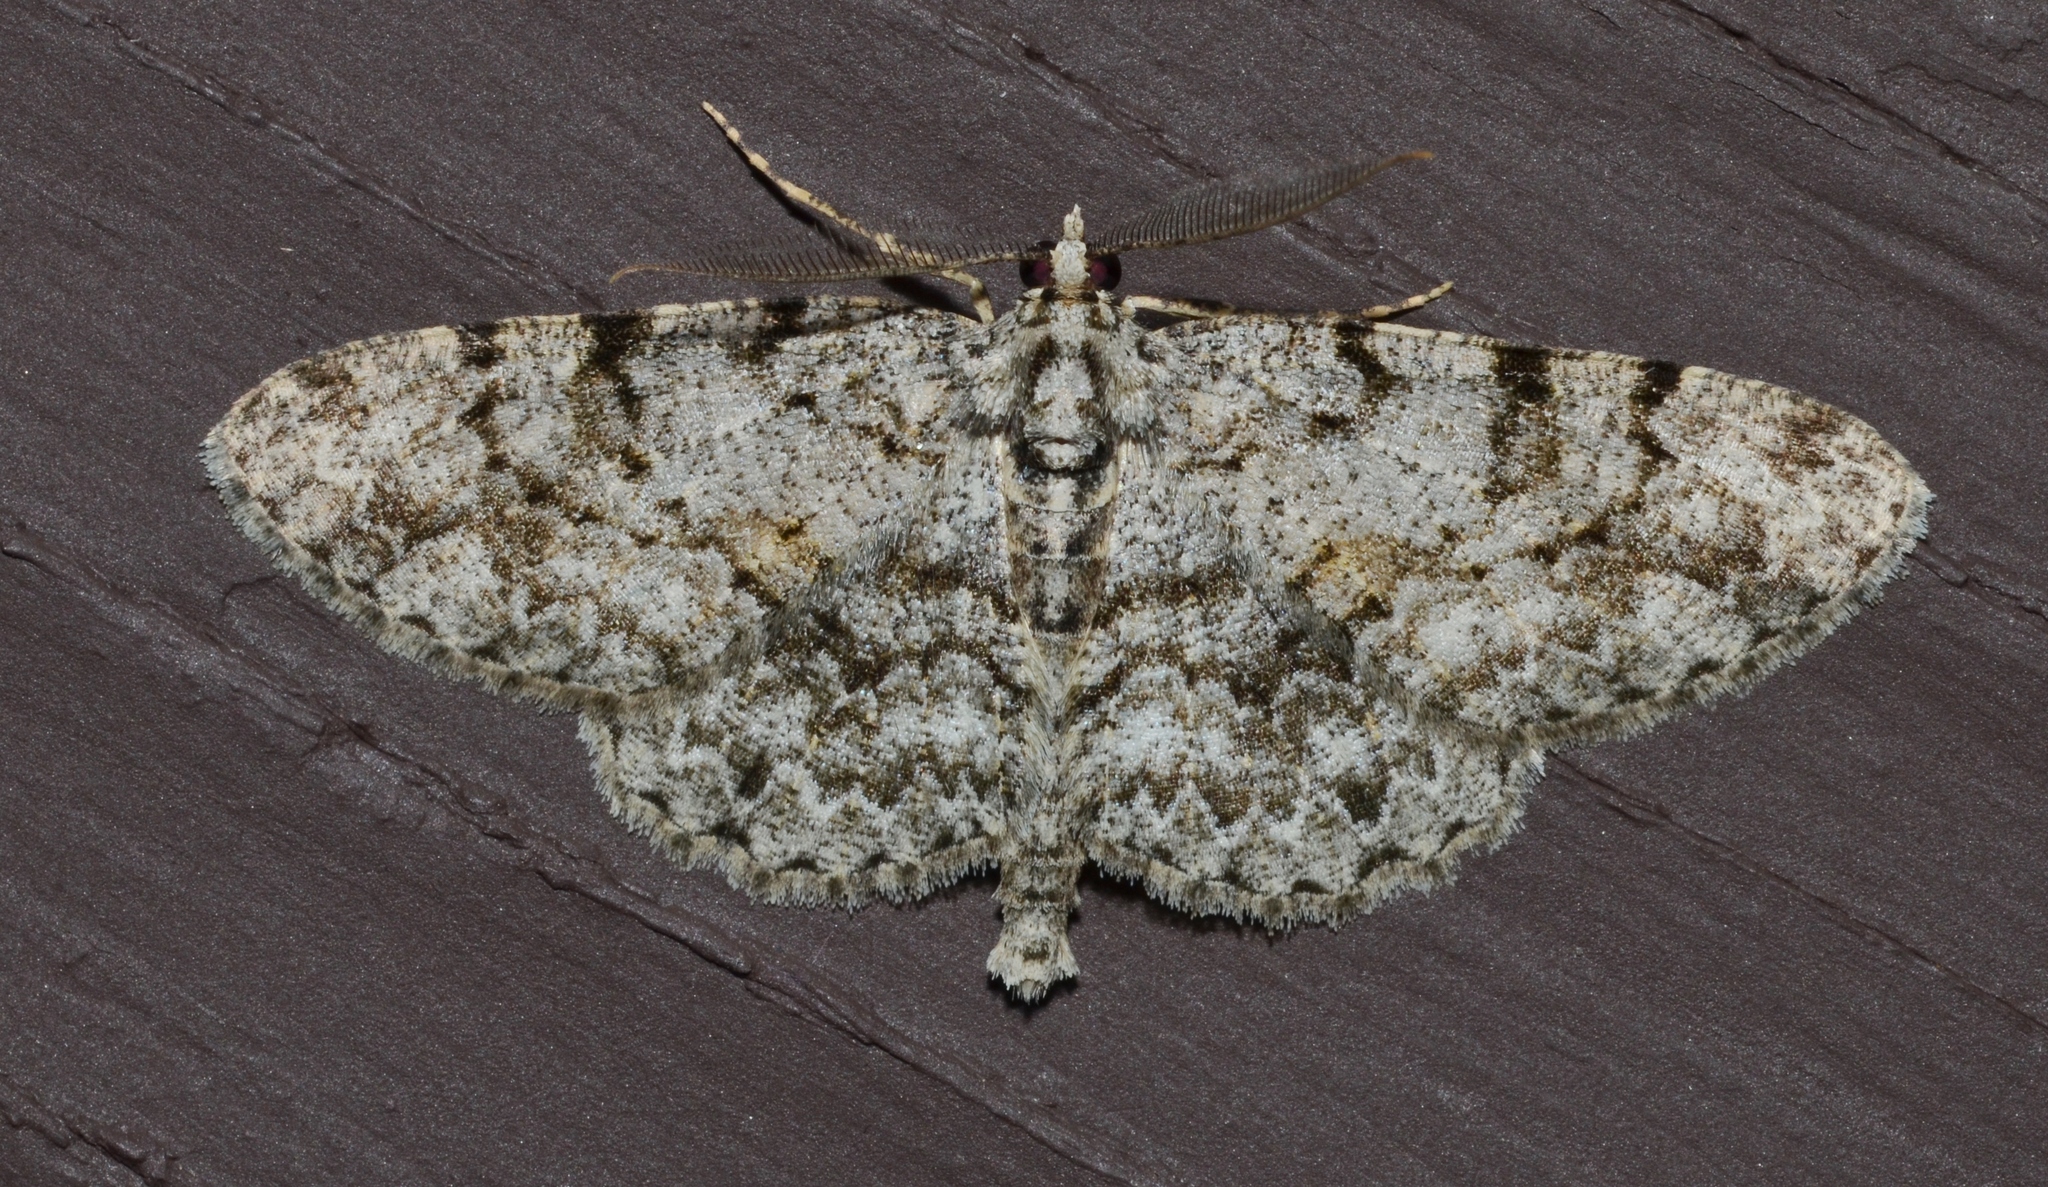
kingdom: Animalia
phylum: Arthropoda
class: Insecta
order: Lepidoptera
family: Geometridae
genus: Protoboarmia
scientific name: Protoboarmia porcelaria
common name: Porcelain gray
